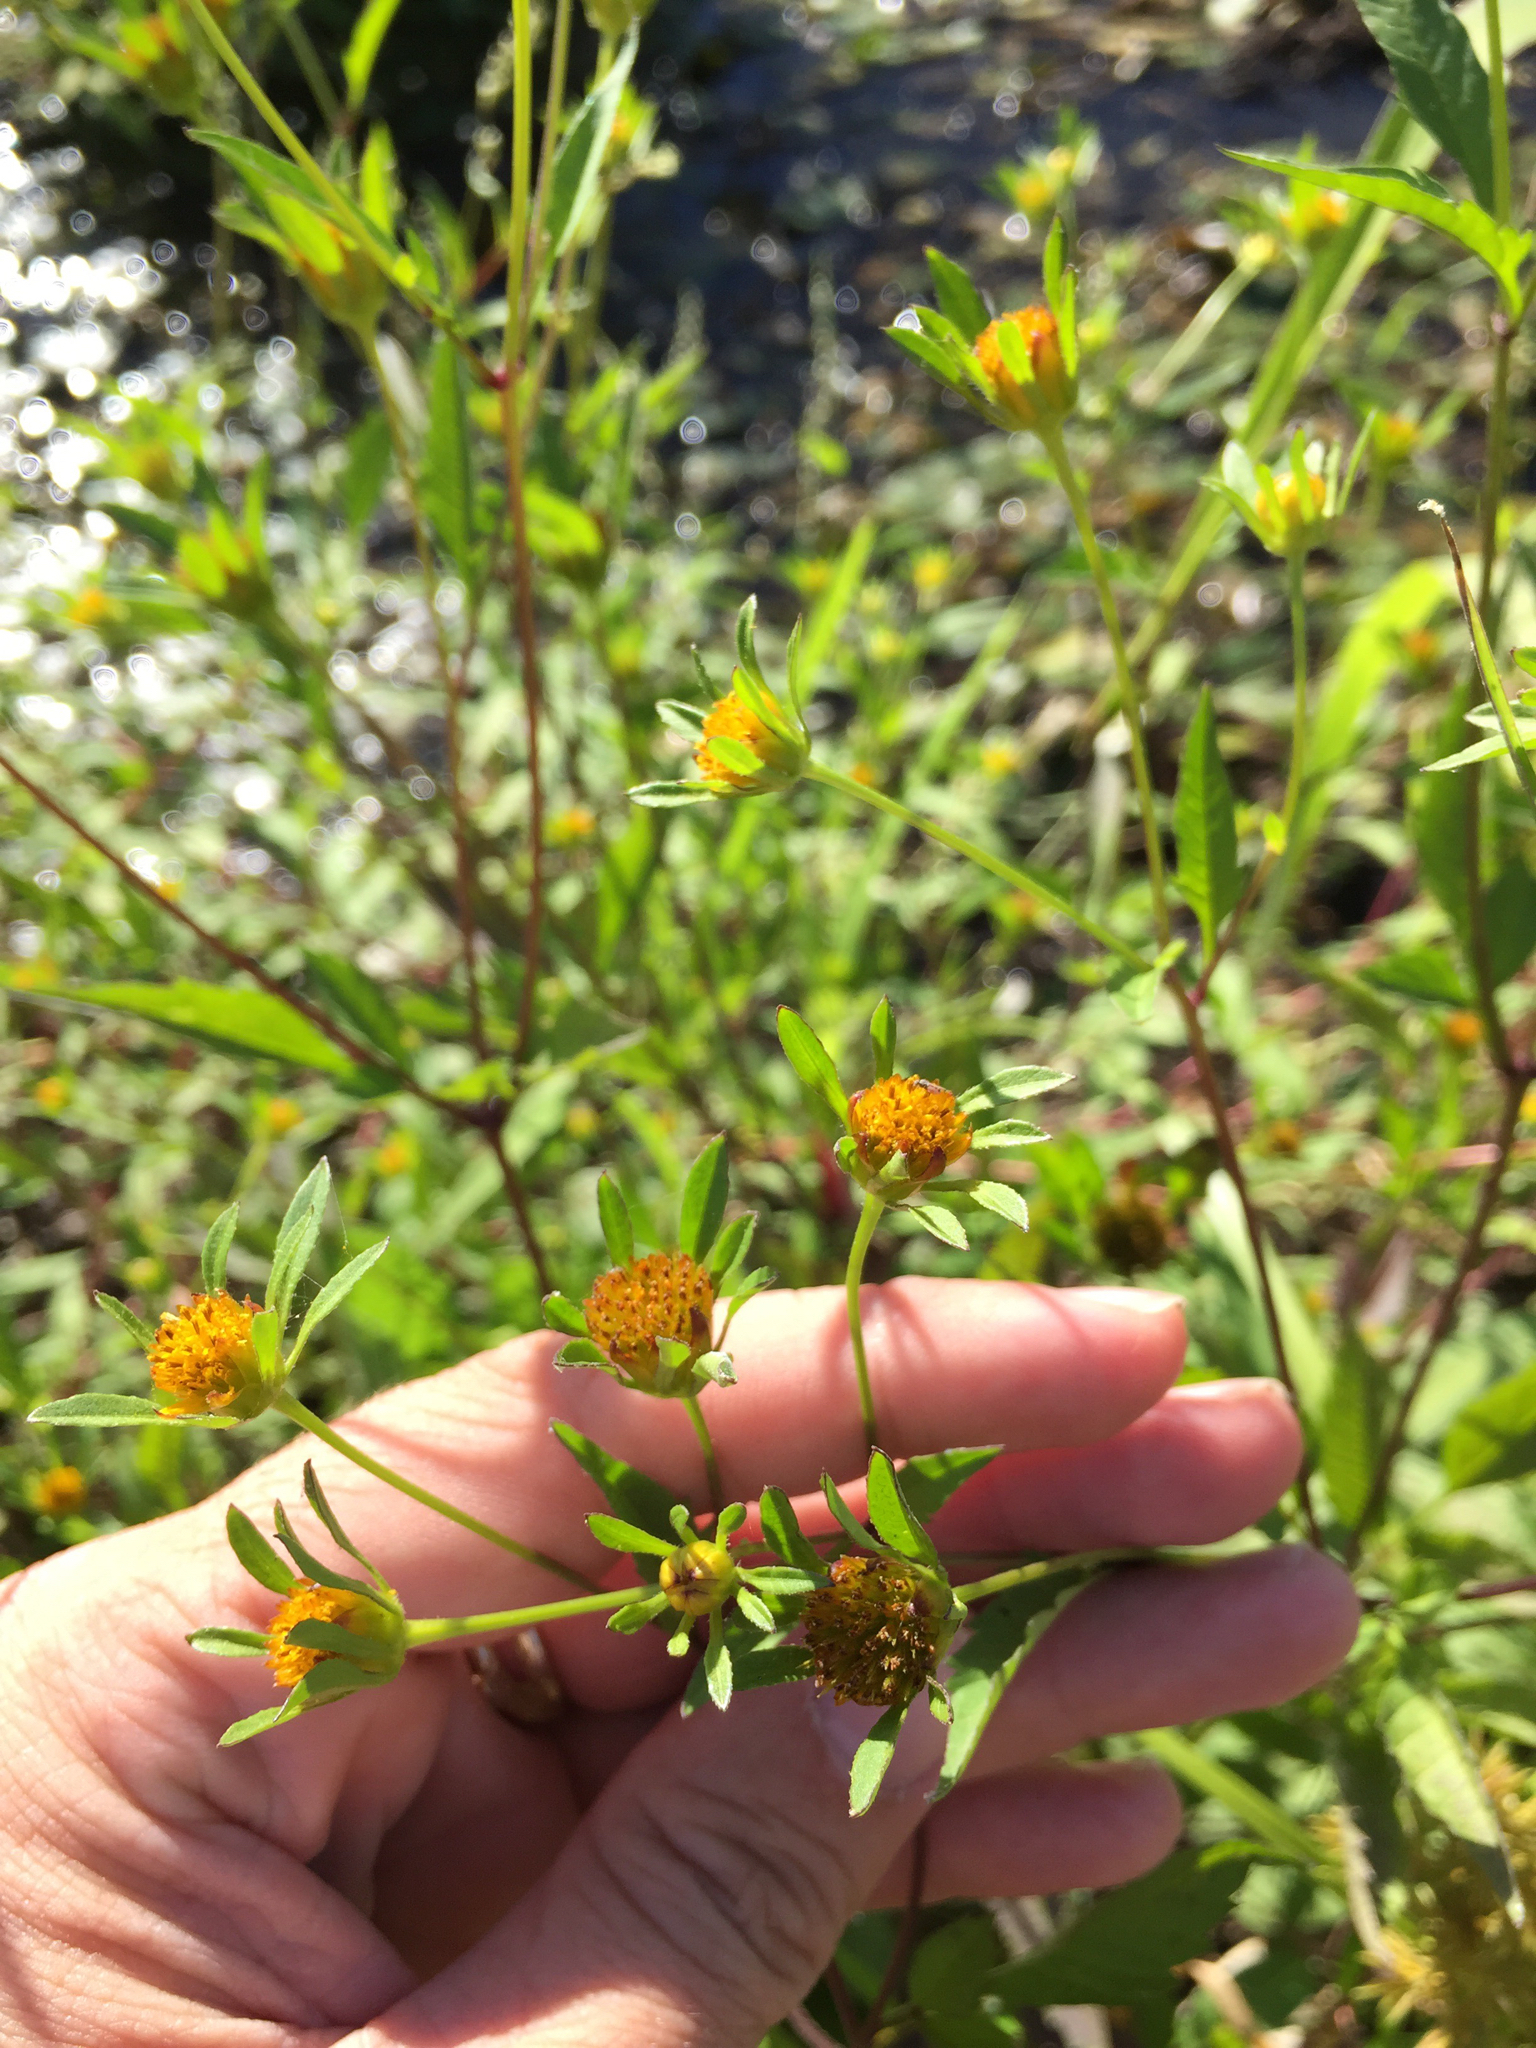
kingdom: Plantae
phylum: Tracheophyta
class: Magnoliopsida
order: Asterales
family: Asteraceae
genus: Bidens
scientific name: Bidens frondosa
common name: Beggarticks
